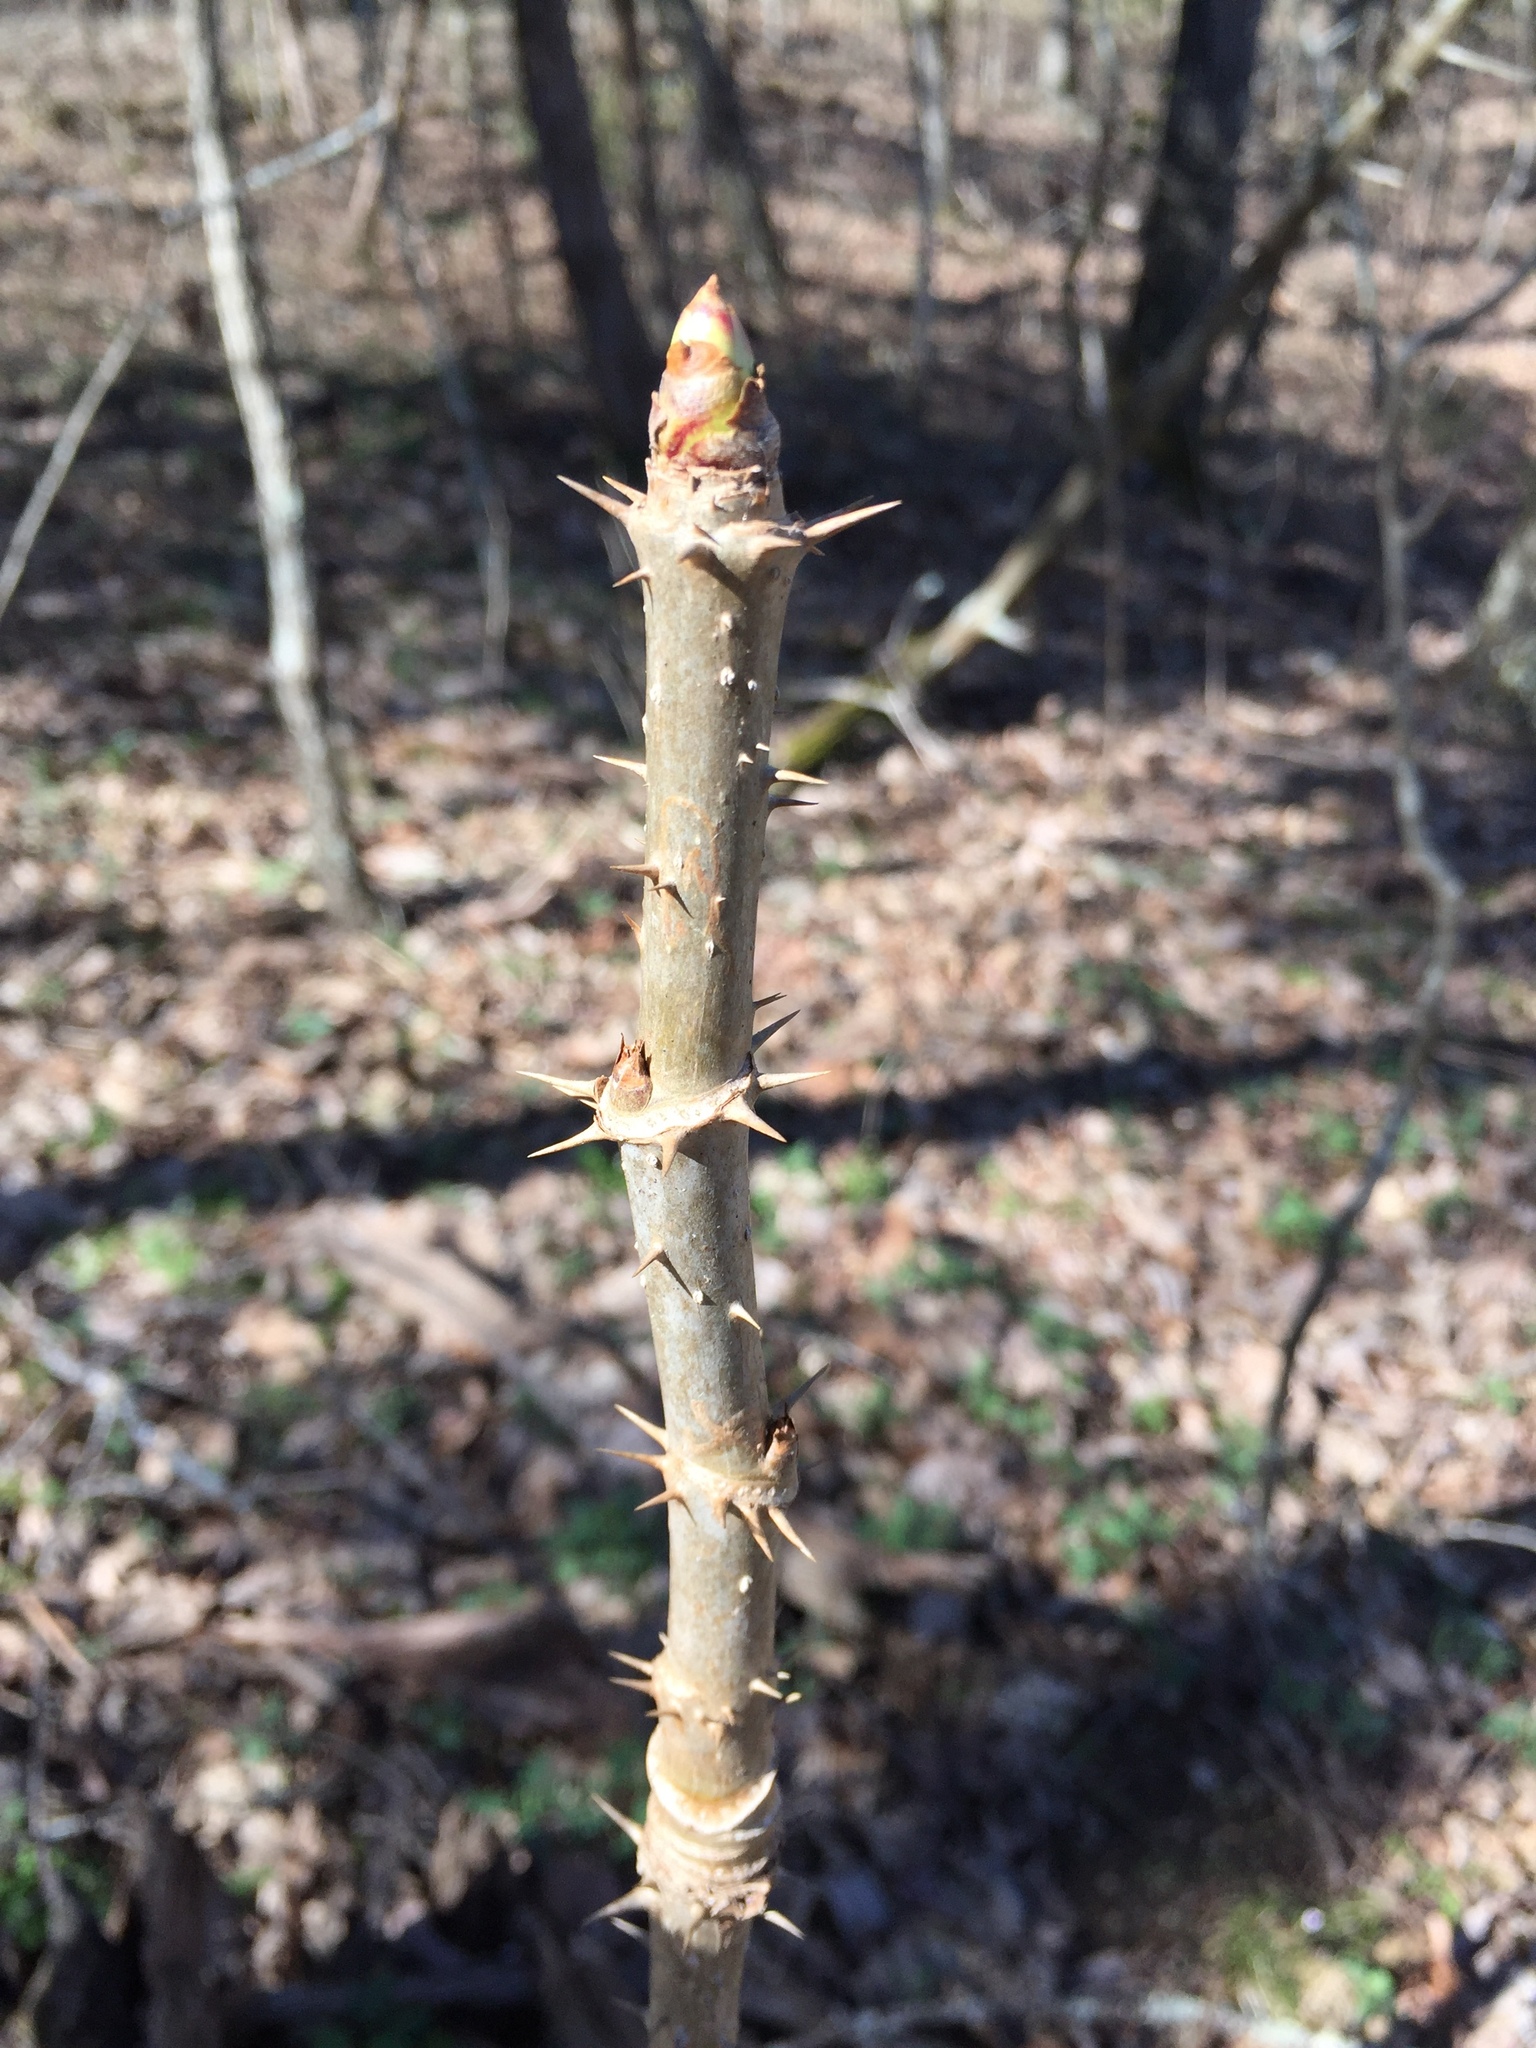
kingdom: Plantae
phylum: Tracheophyta
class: Magnoliopsida
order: Apiales
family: Araliaceae
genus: Aralia
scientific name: Aralia spinosa
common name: Hercules'-club
